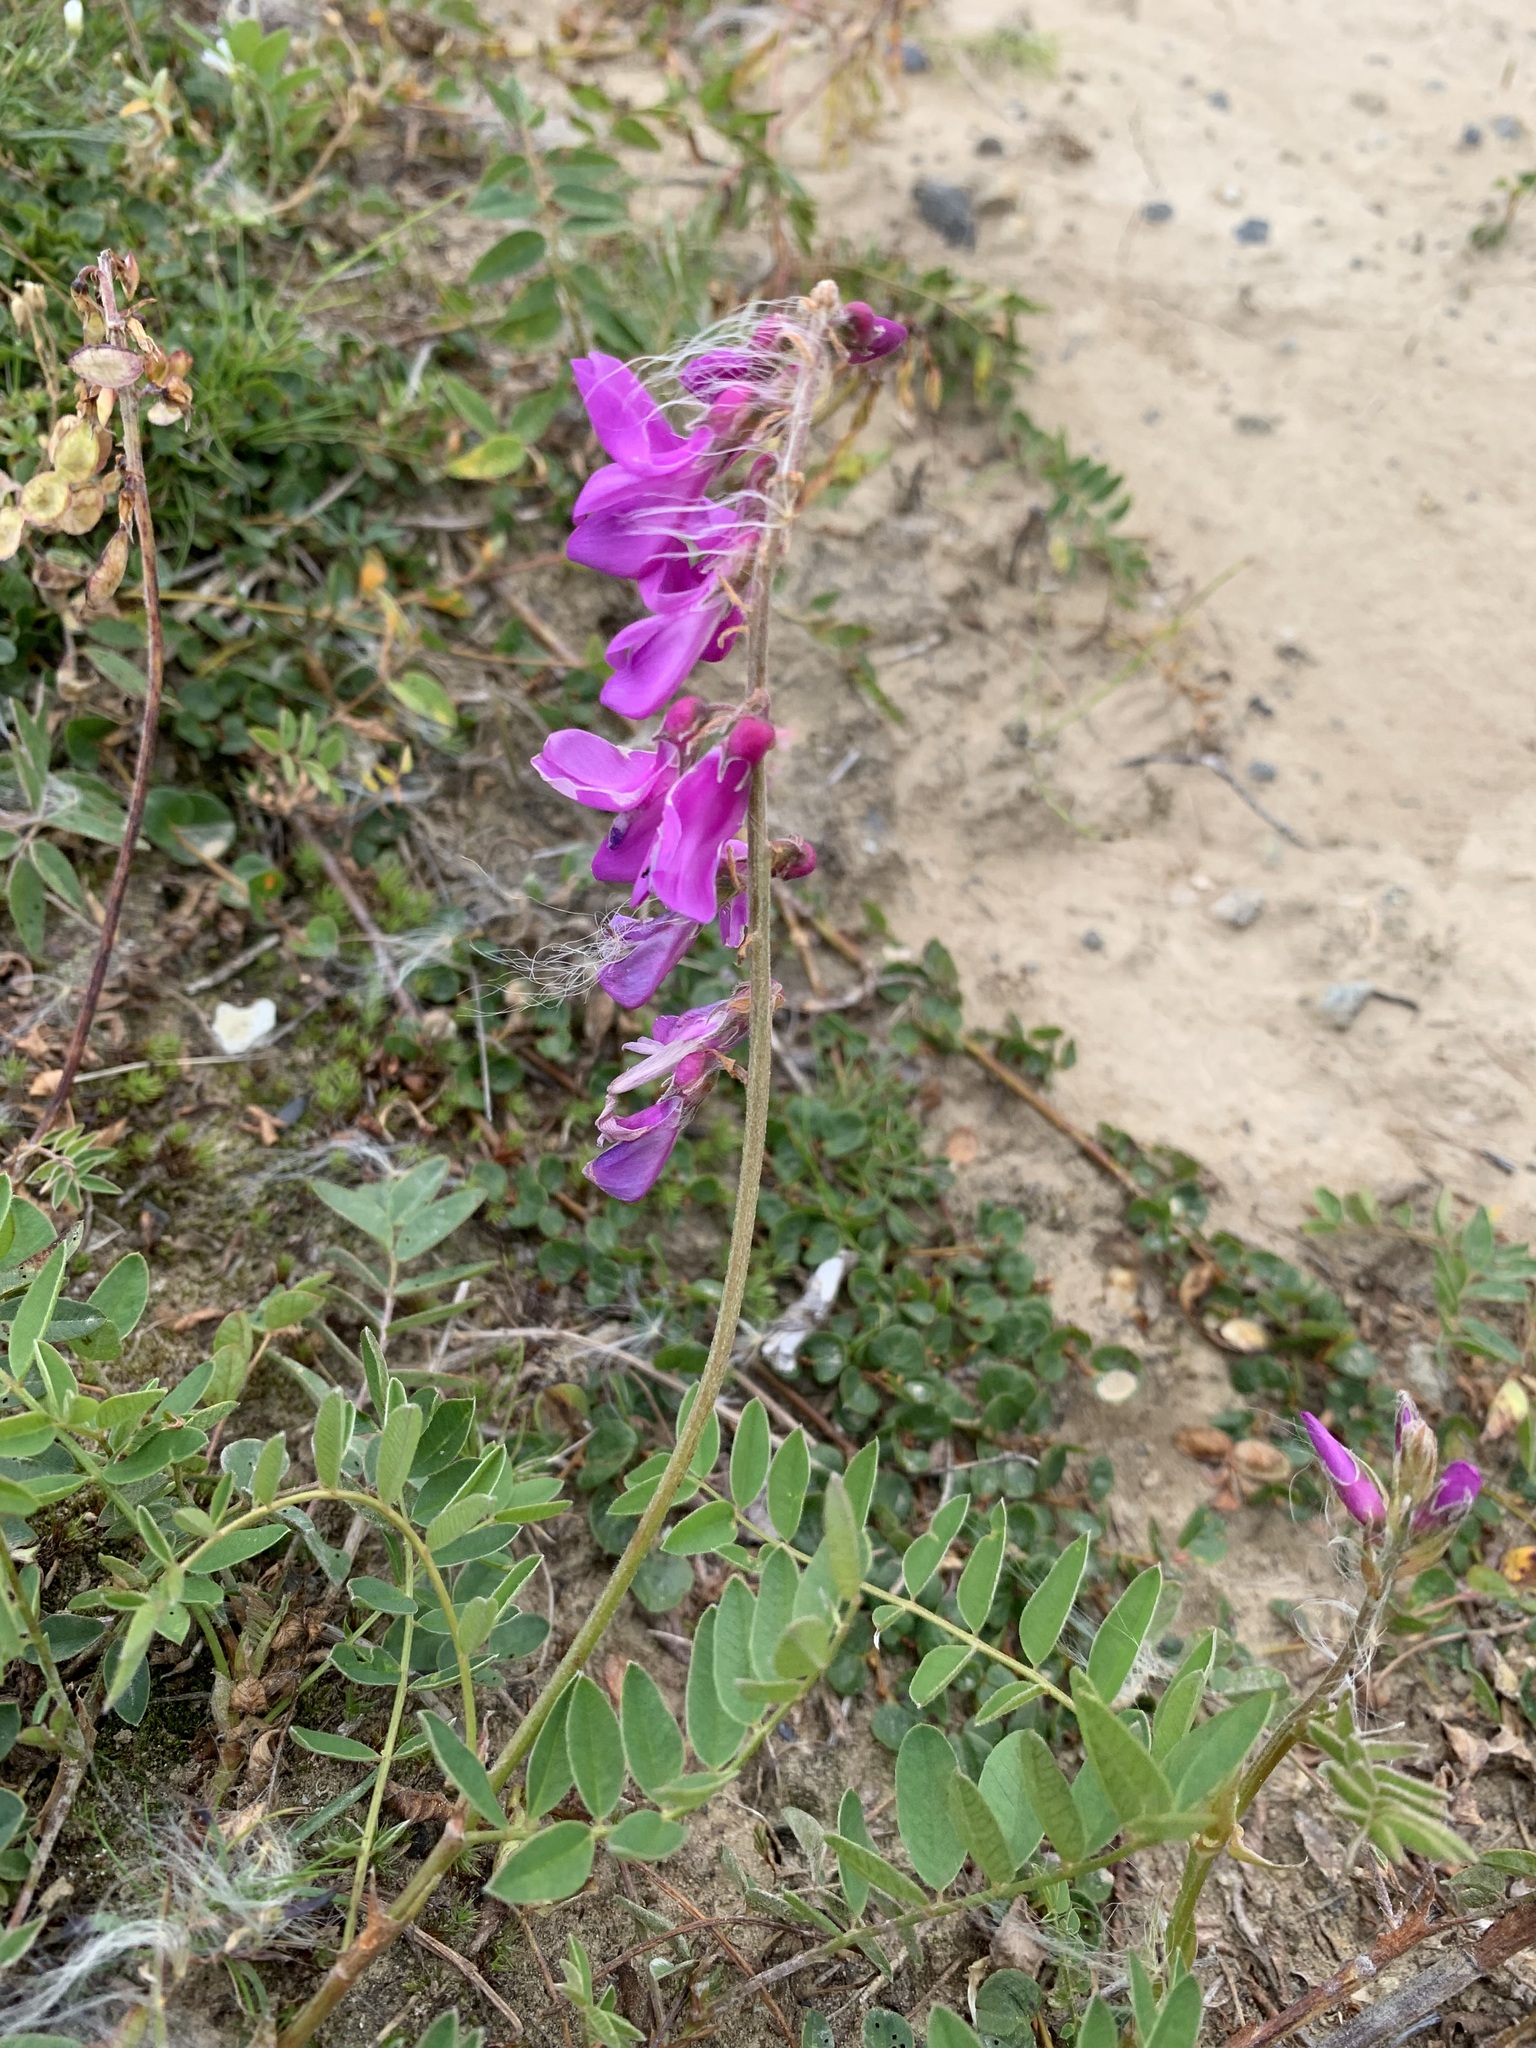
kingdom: Plantae
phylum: Tracheophyta
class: Magnoliopsida
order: Fabales
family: Fabaceae
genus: Hedysarum
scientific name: Hedysarum hedysaroides
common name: Alpine french-honeysuckle
